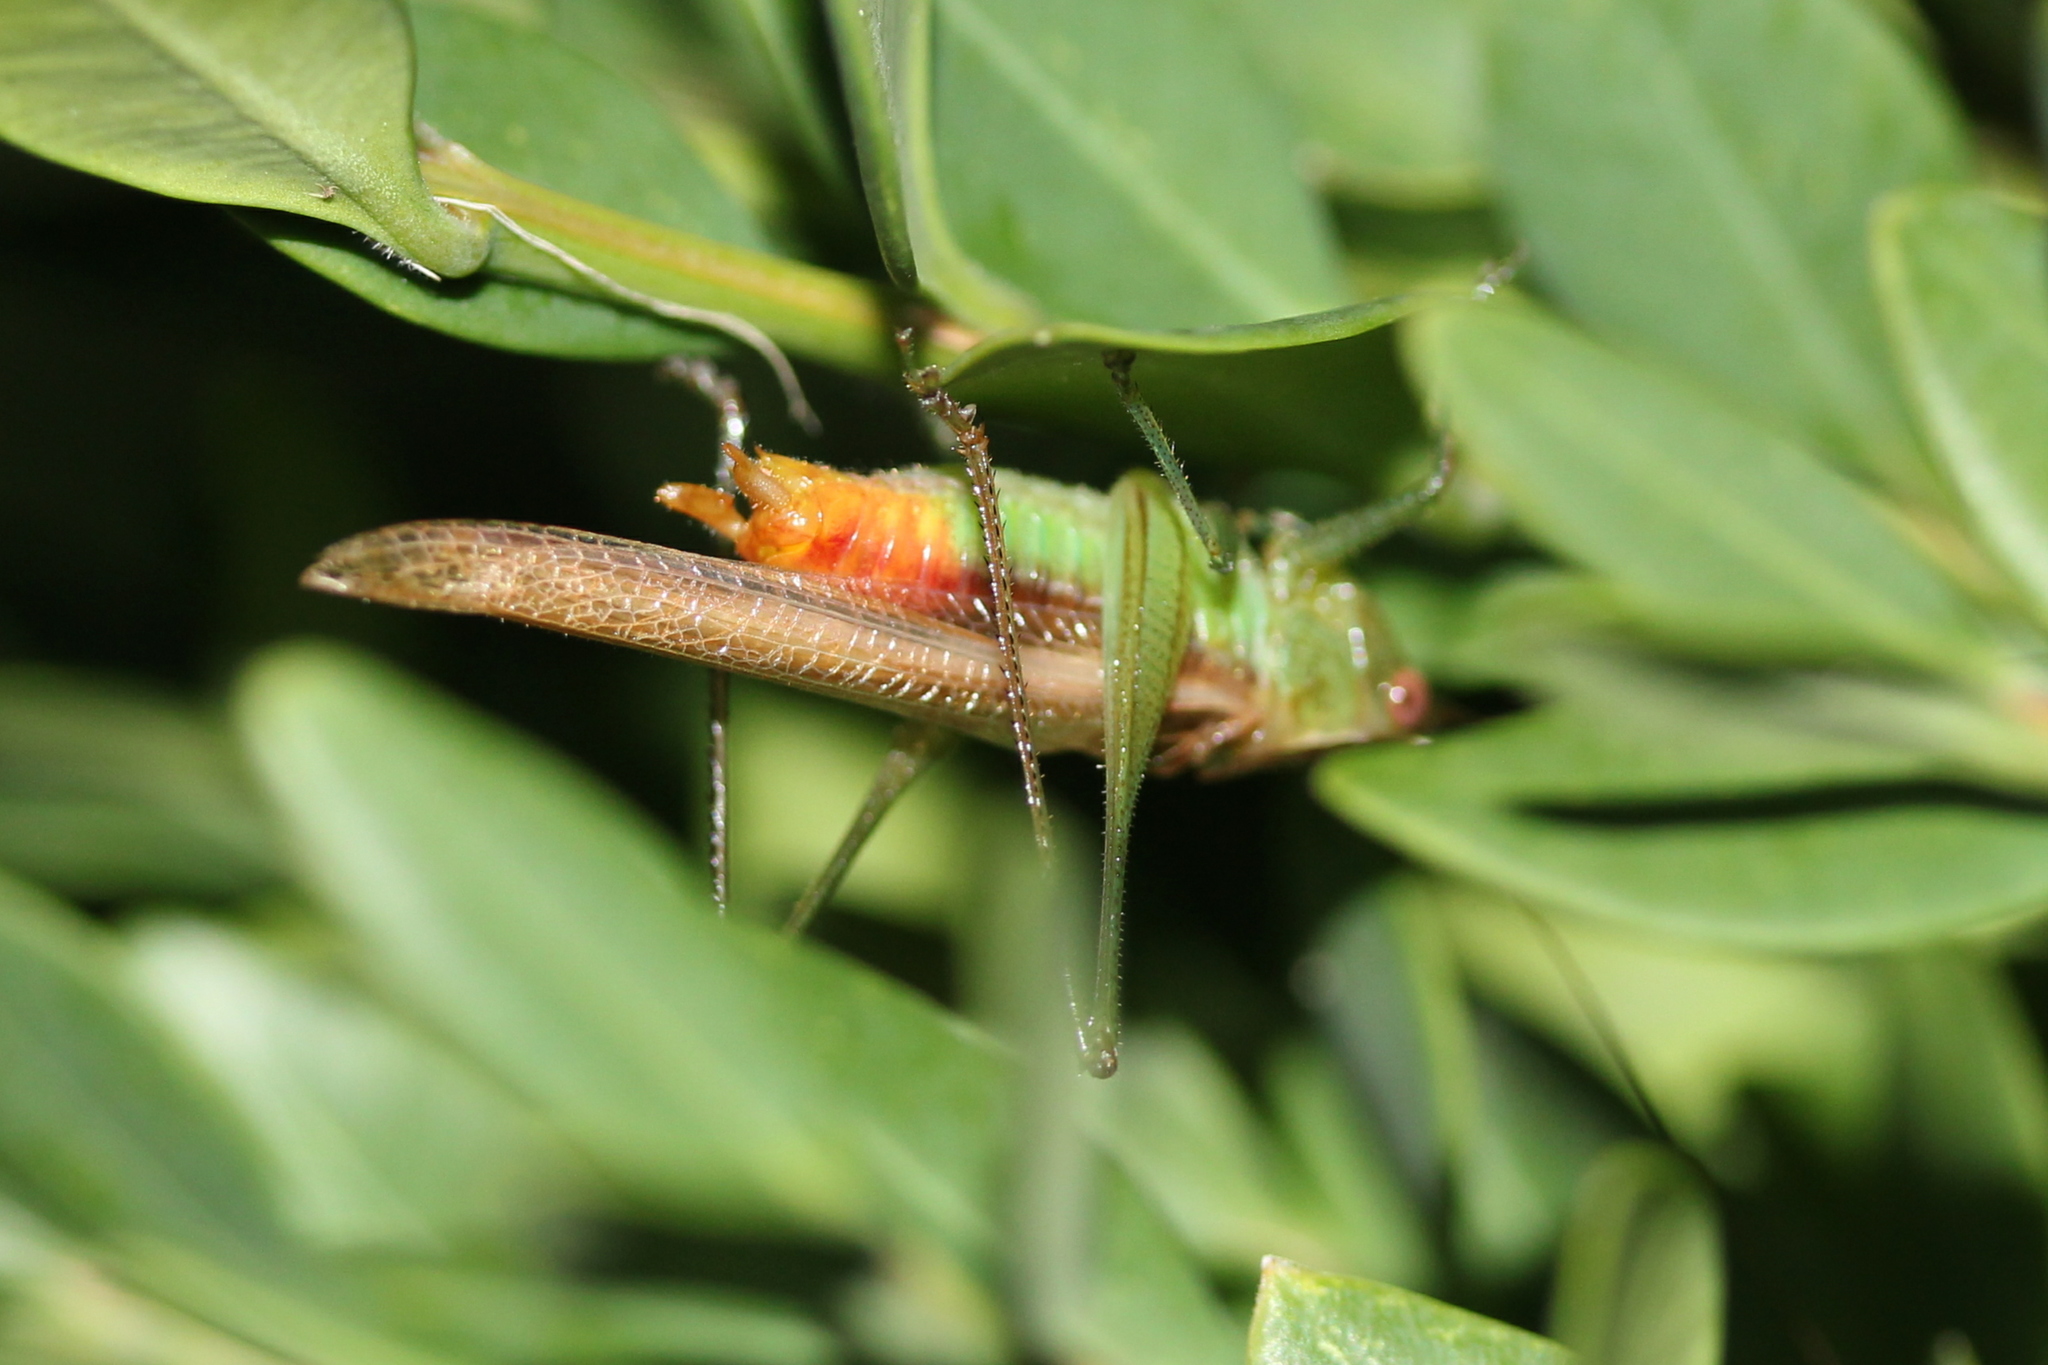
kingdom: Animalia
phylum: Arthropoda
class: Insecta
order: Orthoptera
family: Tettigoniidae
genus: Conocephalus
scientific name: Conocephalus brevipennis
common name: Short-winged meadow katydid
